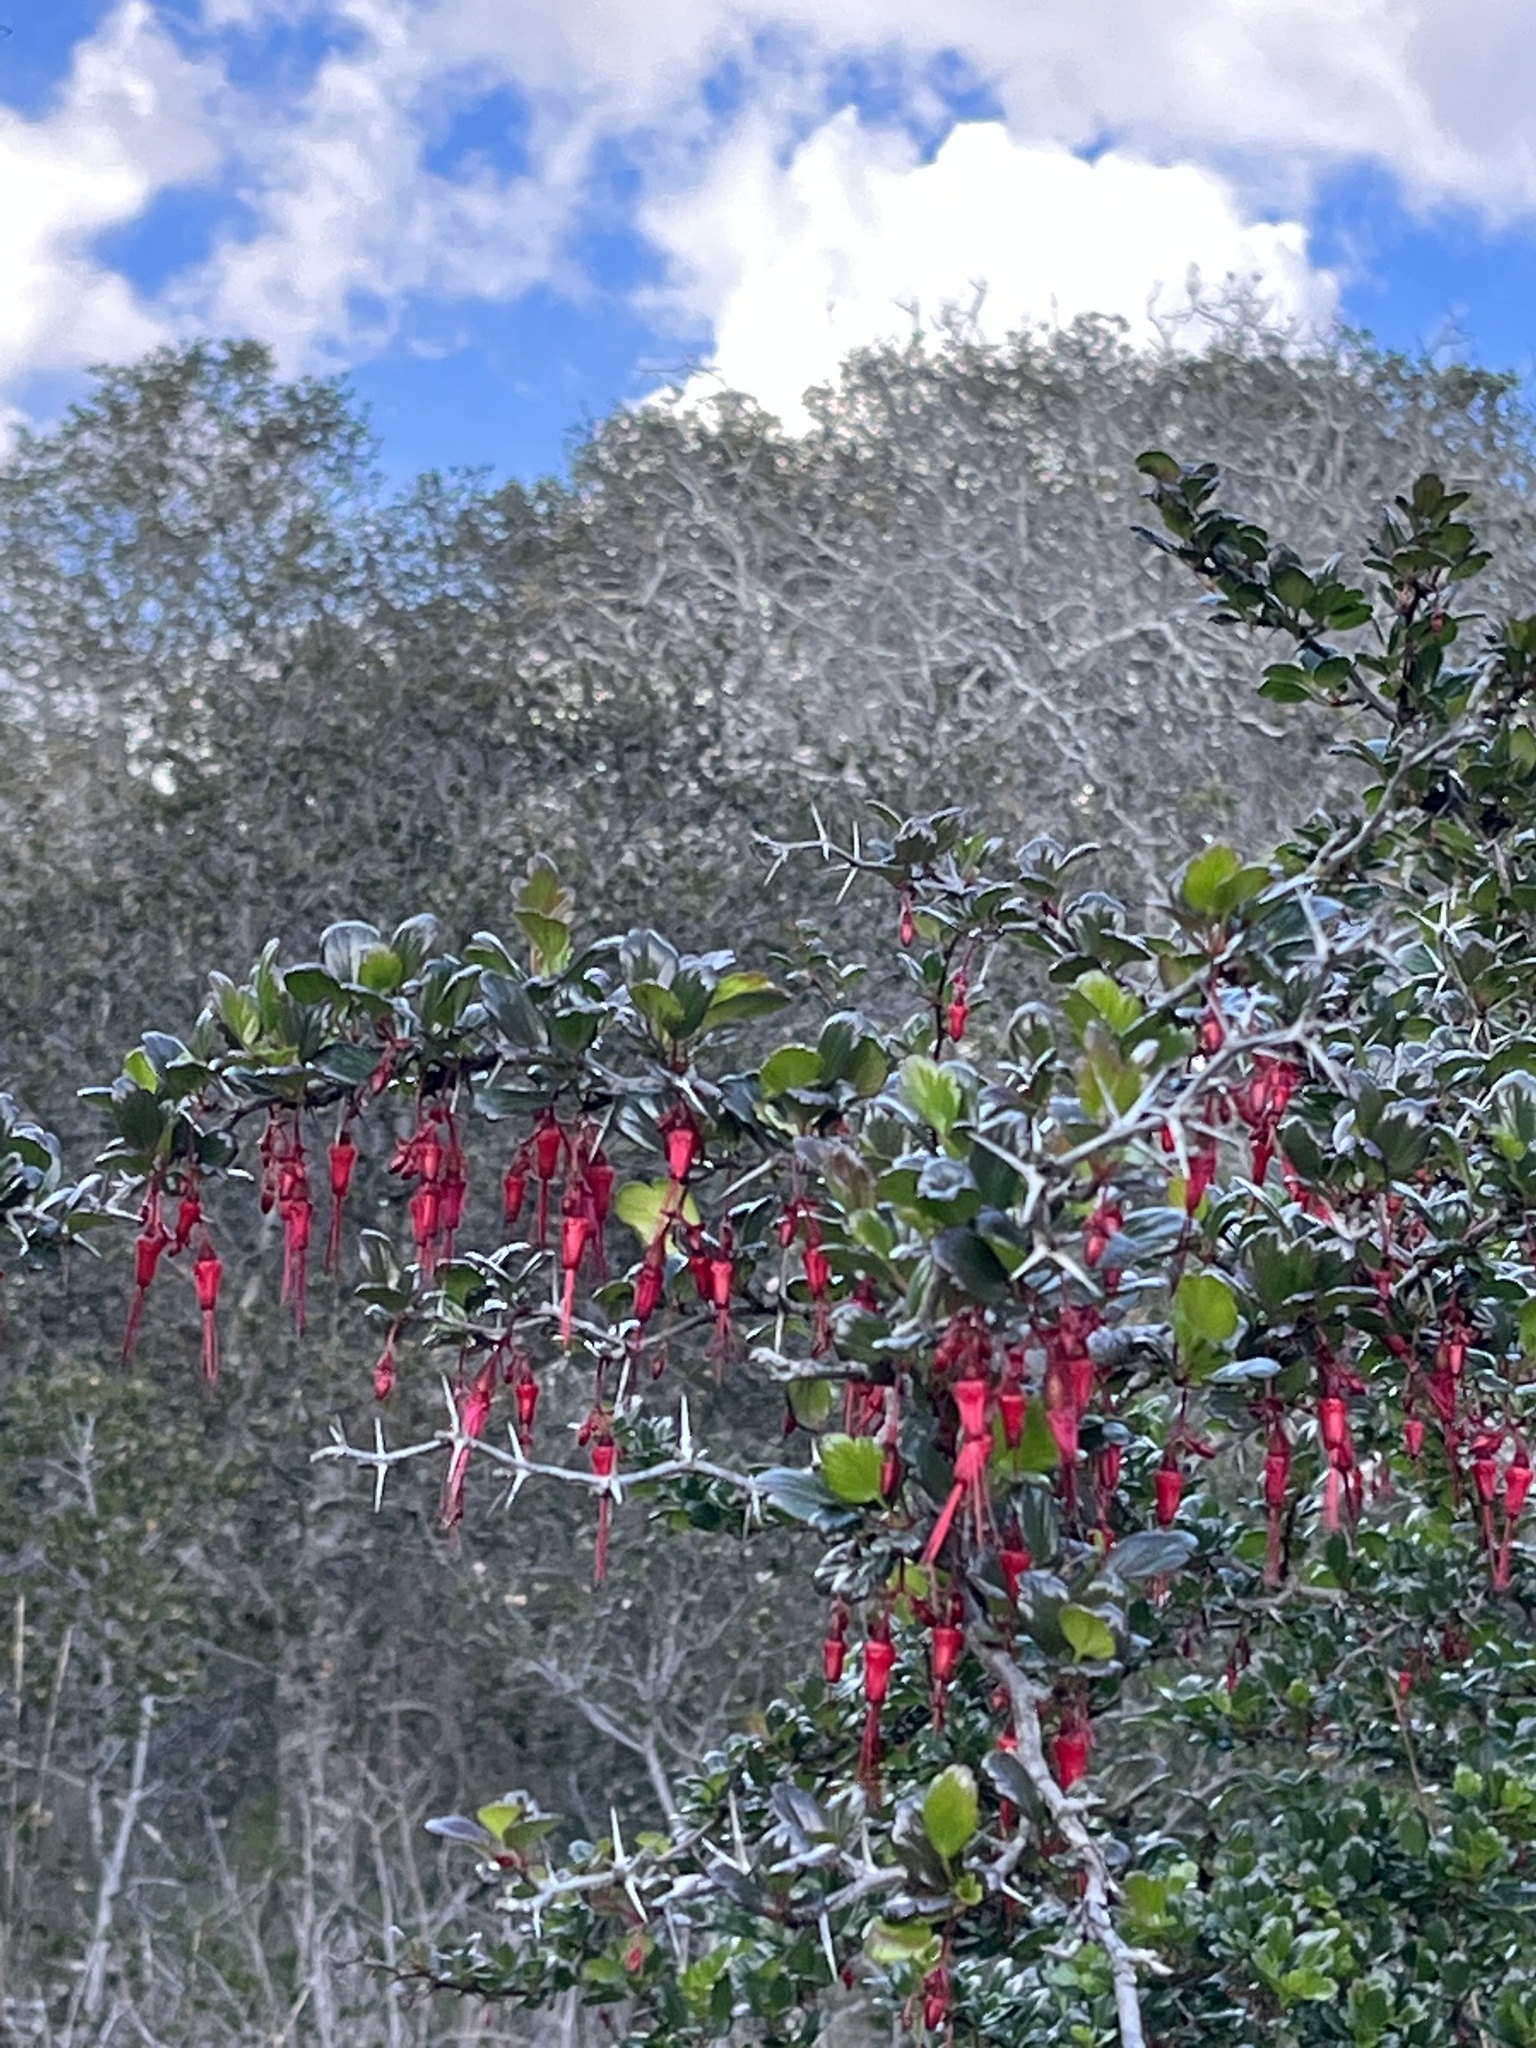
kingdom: Plantae
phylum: Tracheophyta
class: Magnoliopsida
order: Saxifragales
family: Grossulariaceae
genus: Ribes
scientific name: Ribes speciosum
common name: Fuchsia-flower gooseberry
